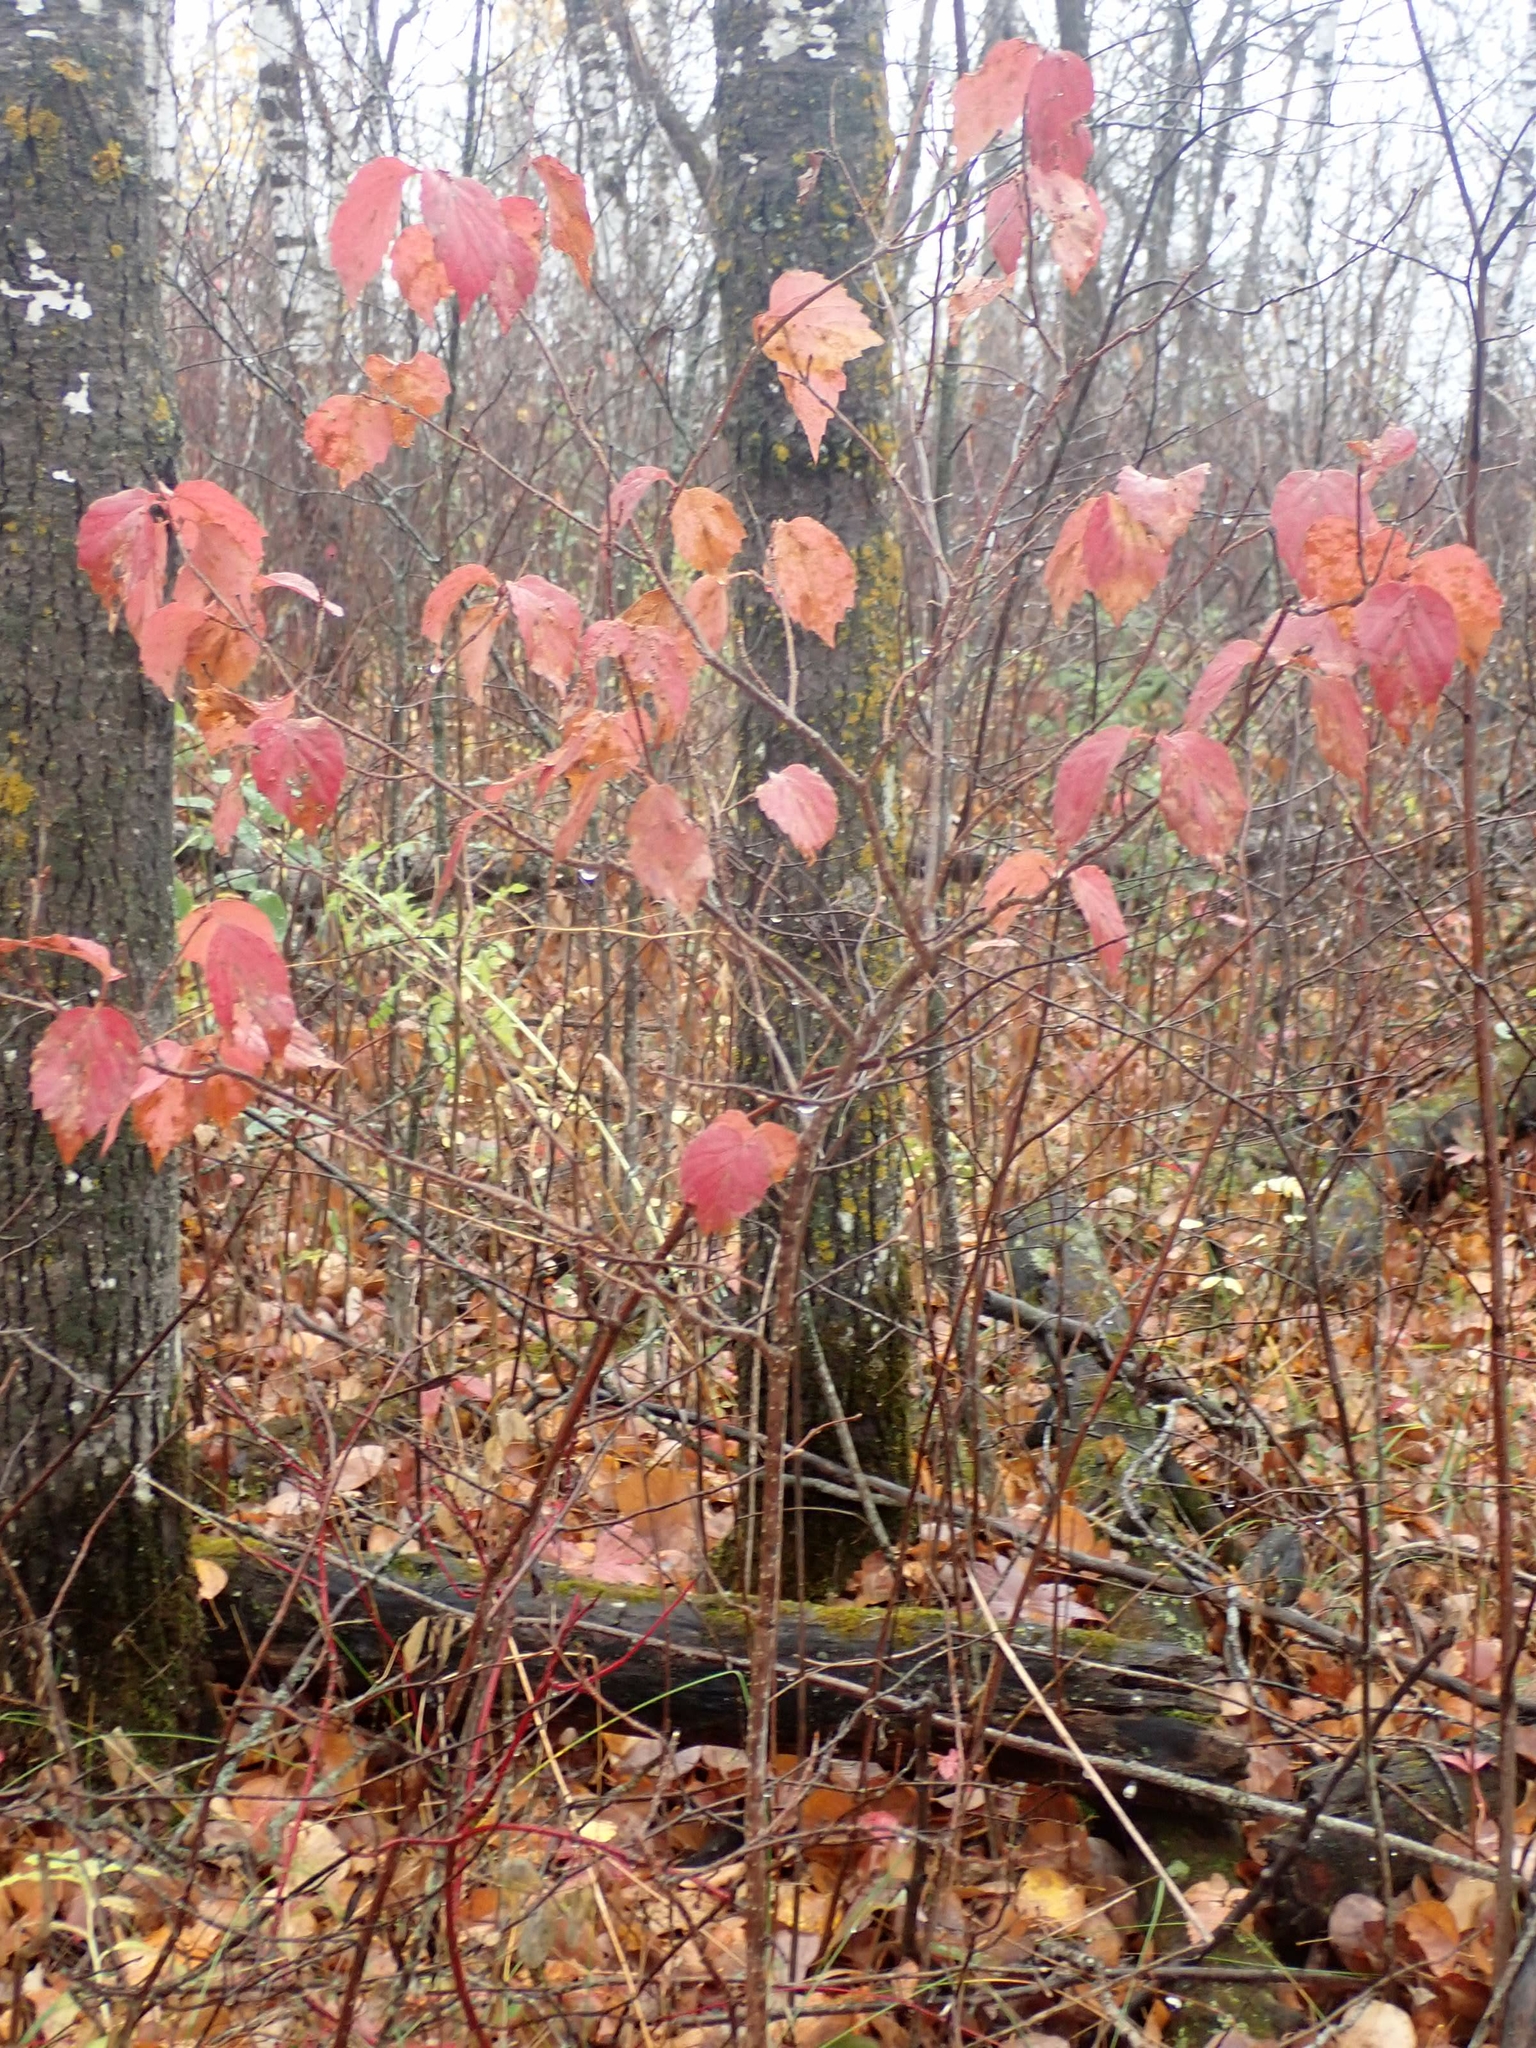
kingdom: Plantae
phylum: Tracheophyta
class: Magnoliopsida
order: Dipsacales
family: Viburnaceae
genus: Viburnum
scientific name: Viburnum rafinesqueanum
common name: Downy arrow-wood
